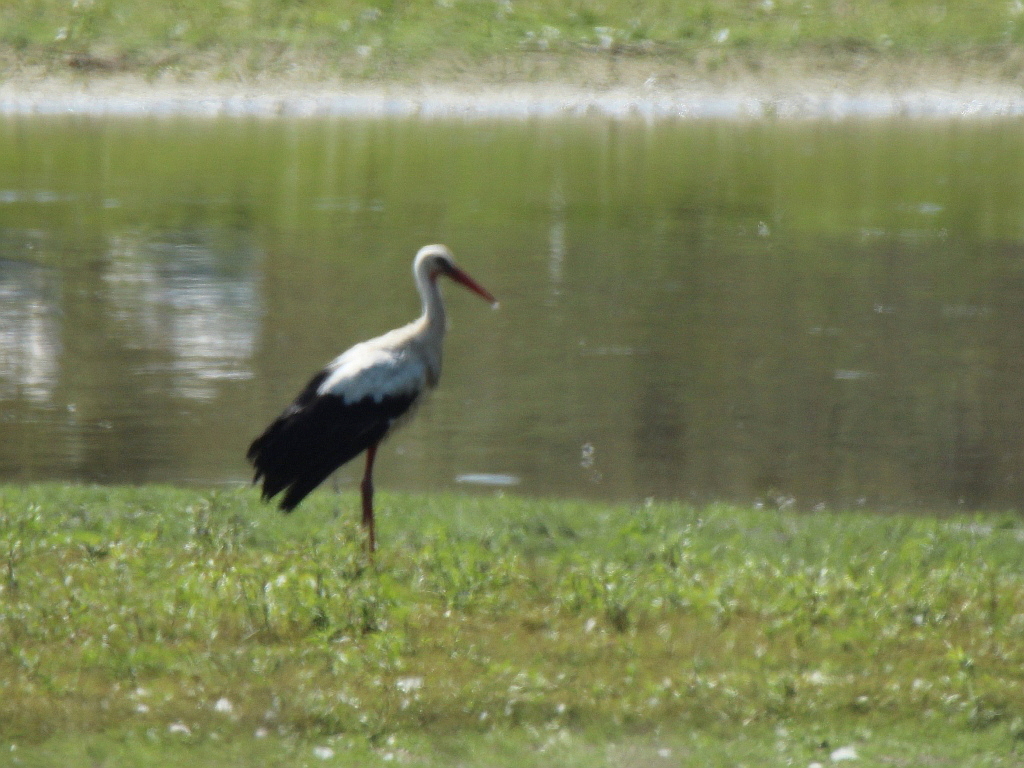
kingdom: Animalia
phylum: Chordata
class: Aves
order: Ciconiiformes
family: Ciconiidae
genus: Ciconia
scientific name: Ciconia ciconia
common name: White stork
